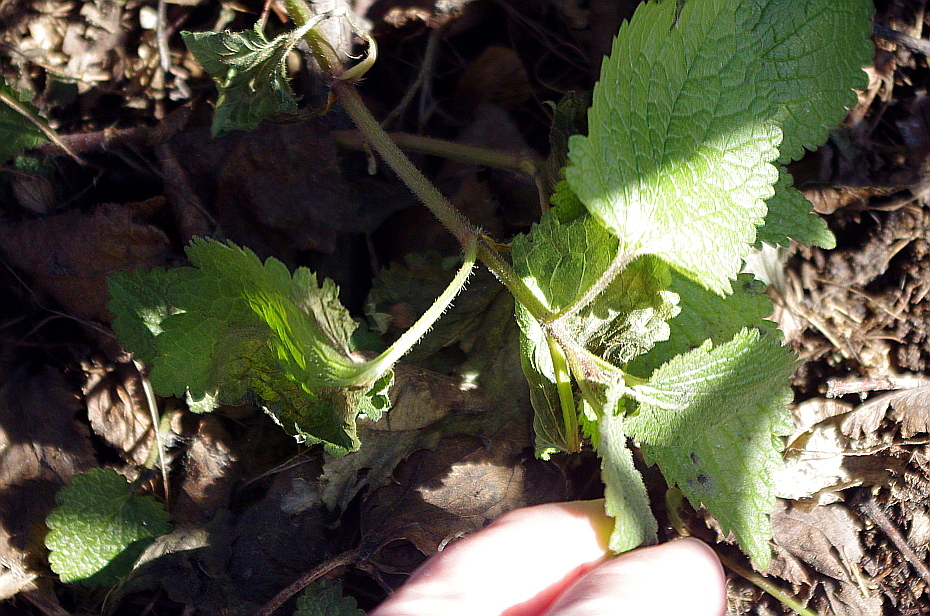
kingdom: Plantae
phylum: Tracheophyta
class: Magnoliopsida
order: Lamiales
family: Lamiaceae
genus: Lamium
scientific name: Lamium album
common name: White dead-nettle
